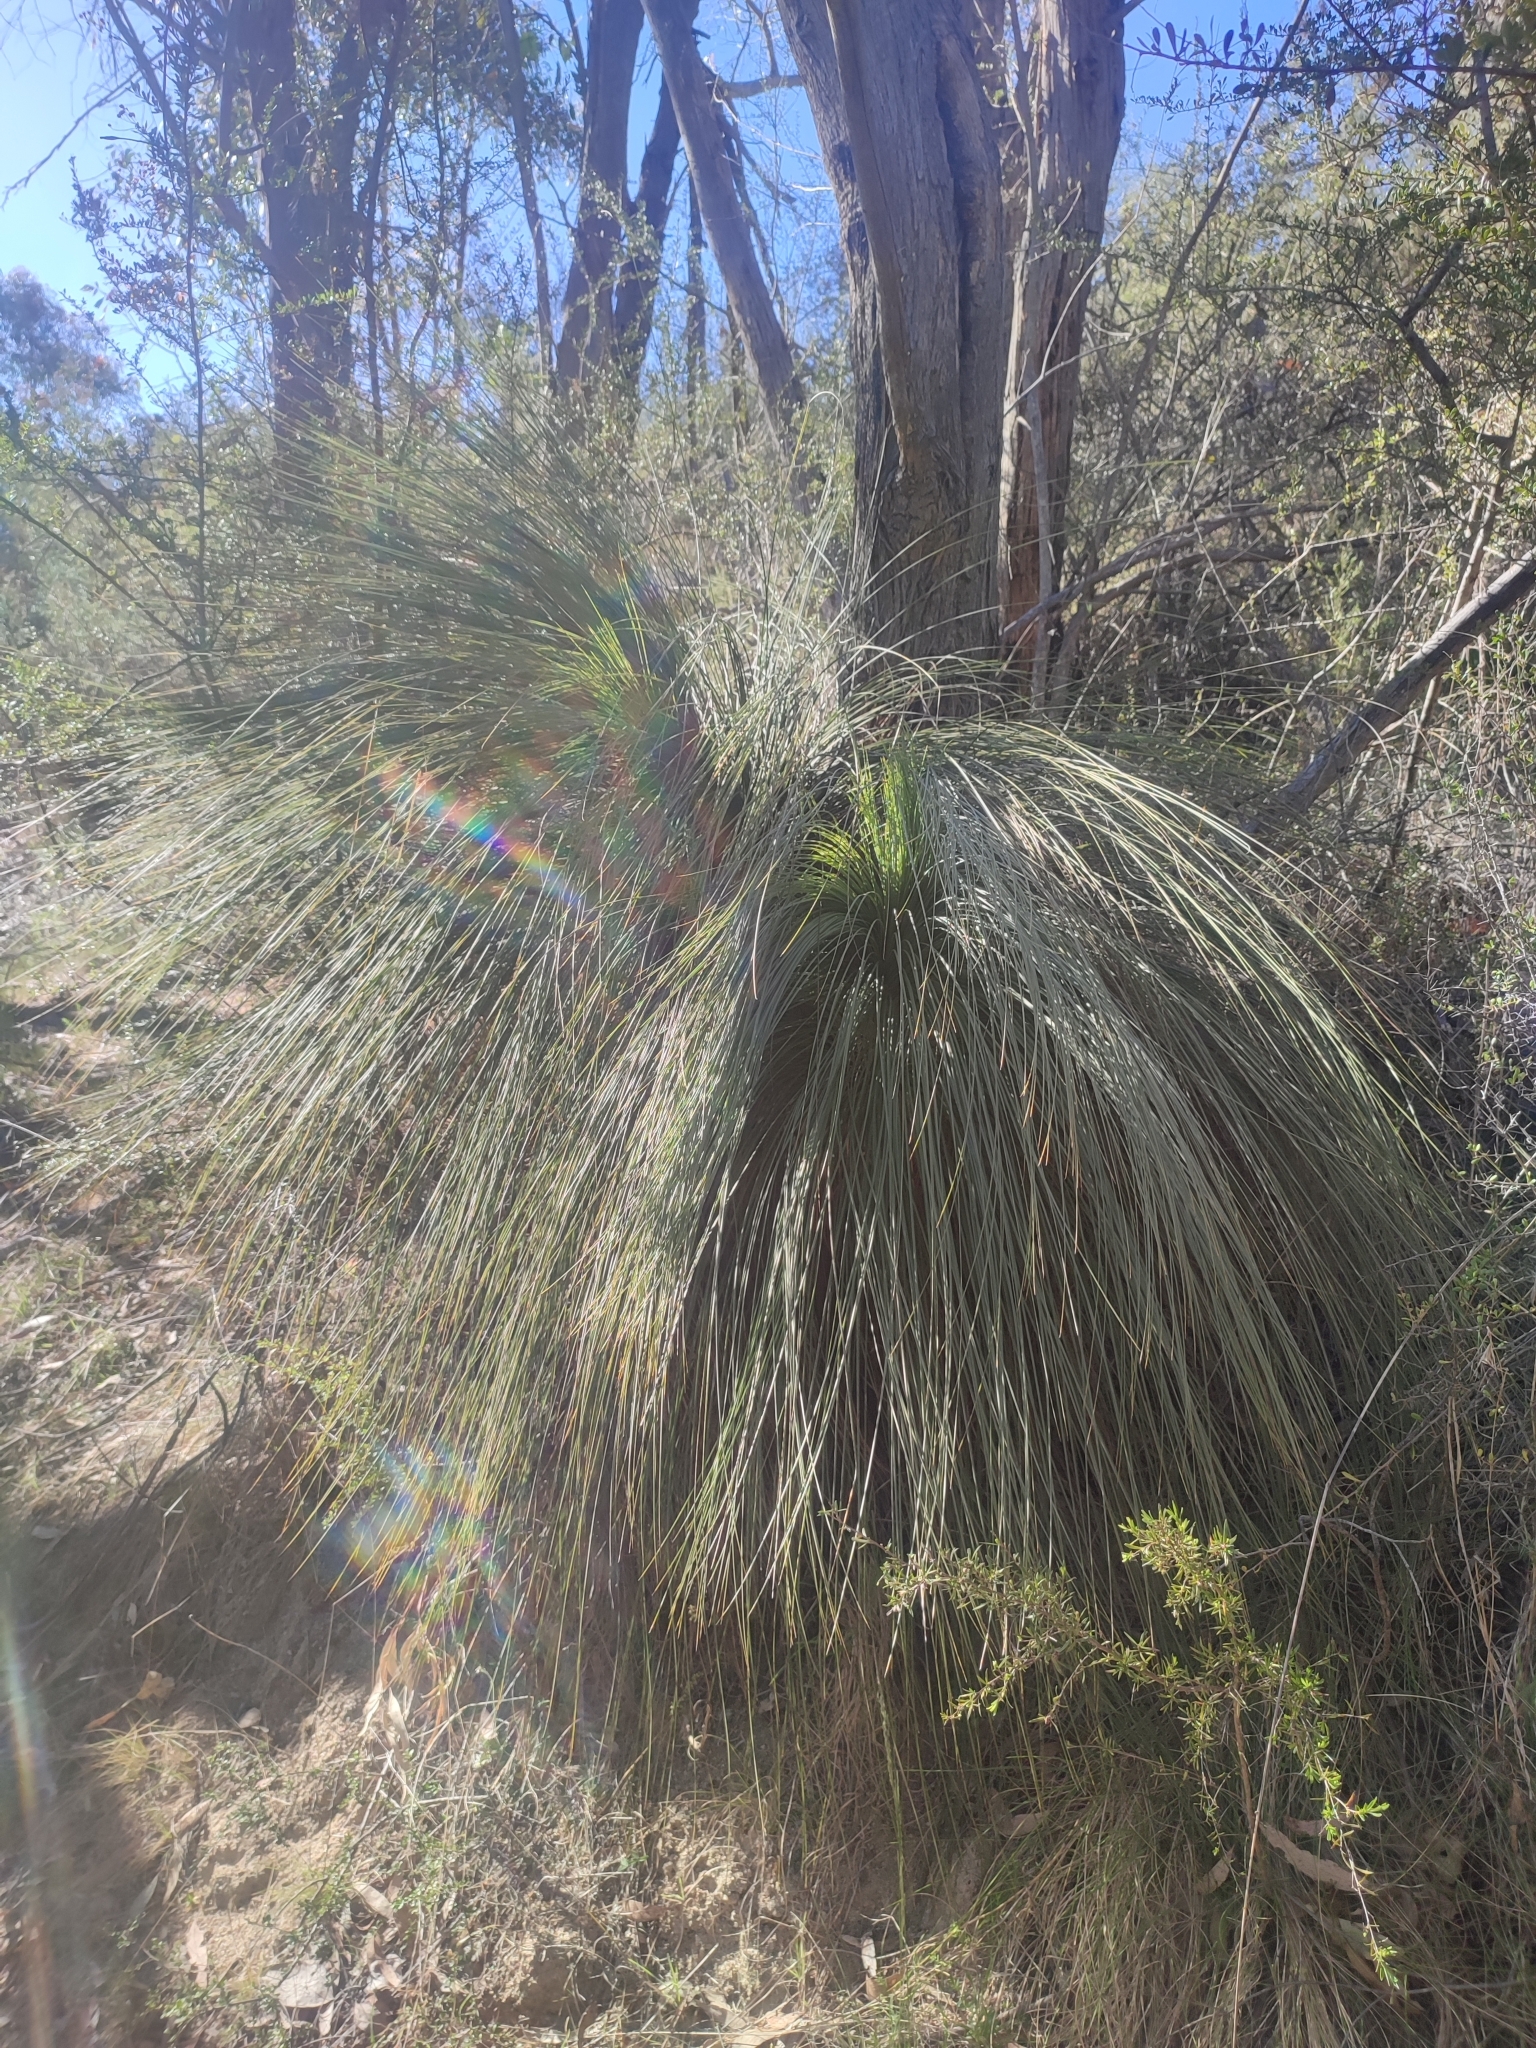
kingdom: Plantae
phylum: Tracheophyta
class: Liliopsida
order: Asparagales
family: Asphodelaceae
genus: Xanthorrhoea
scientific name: Xanthorrhoea glauca
